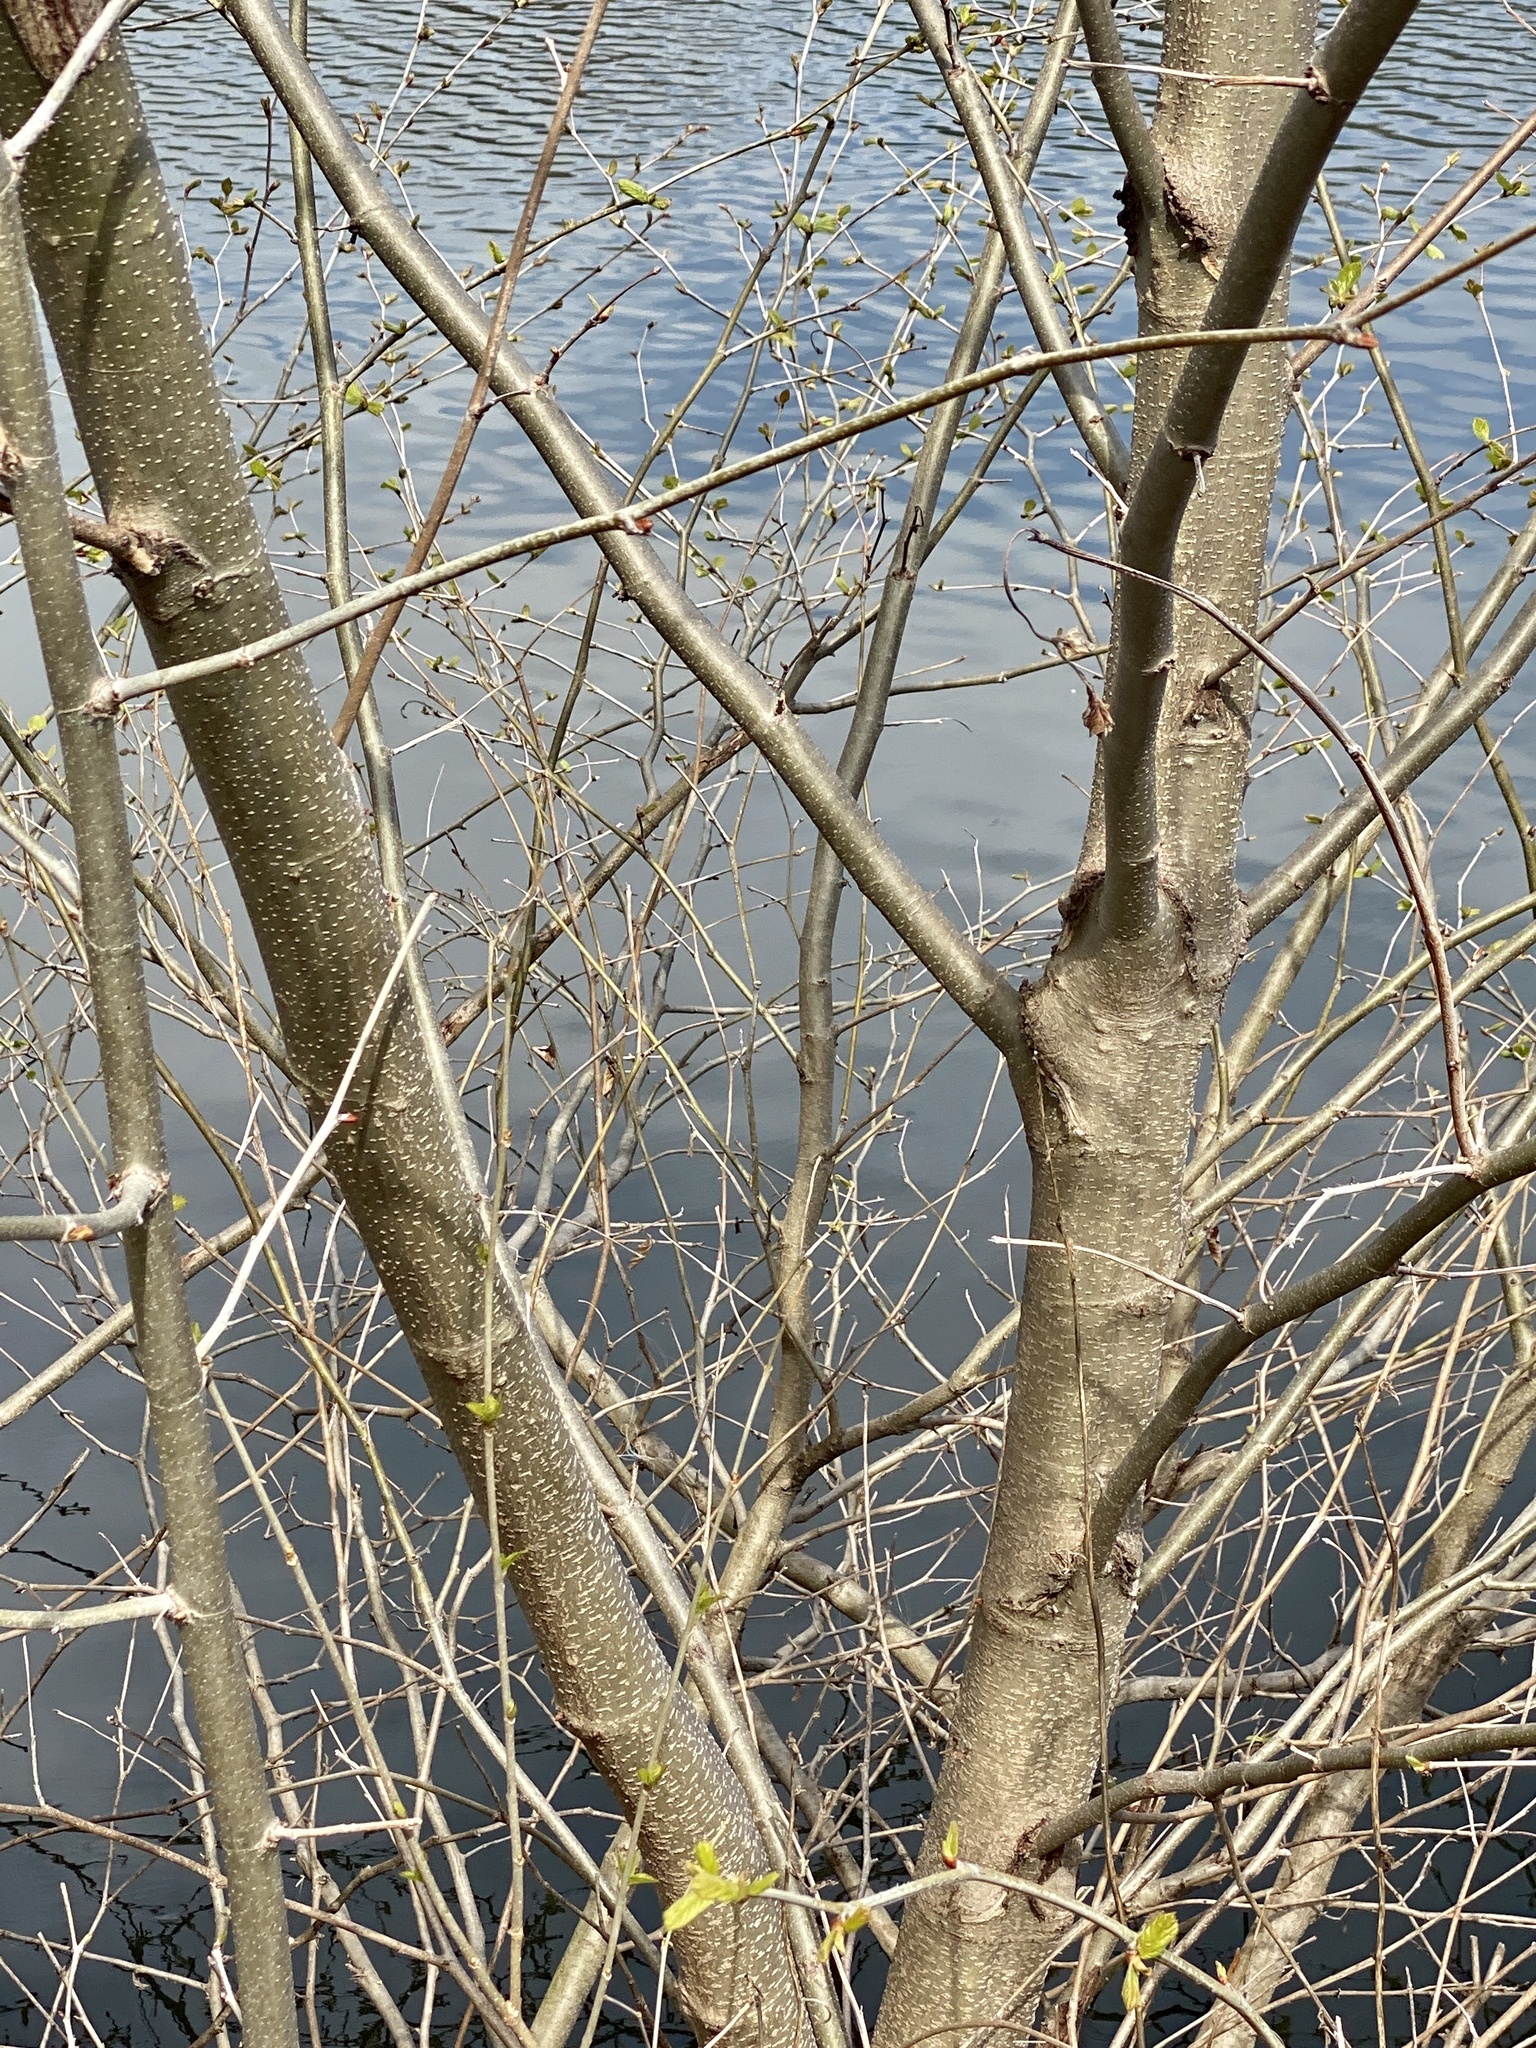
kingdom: Plantae
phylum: Tracheophyta
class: Magnoliopsida
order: Proteales
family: Platanaceae
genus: Platanus
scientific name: Platanus occidentalis
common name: American sycamore
